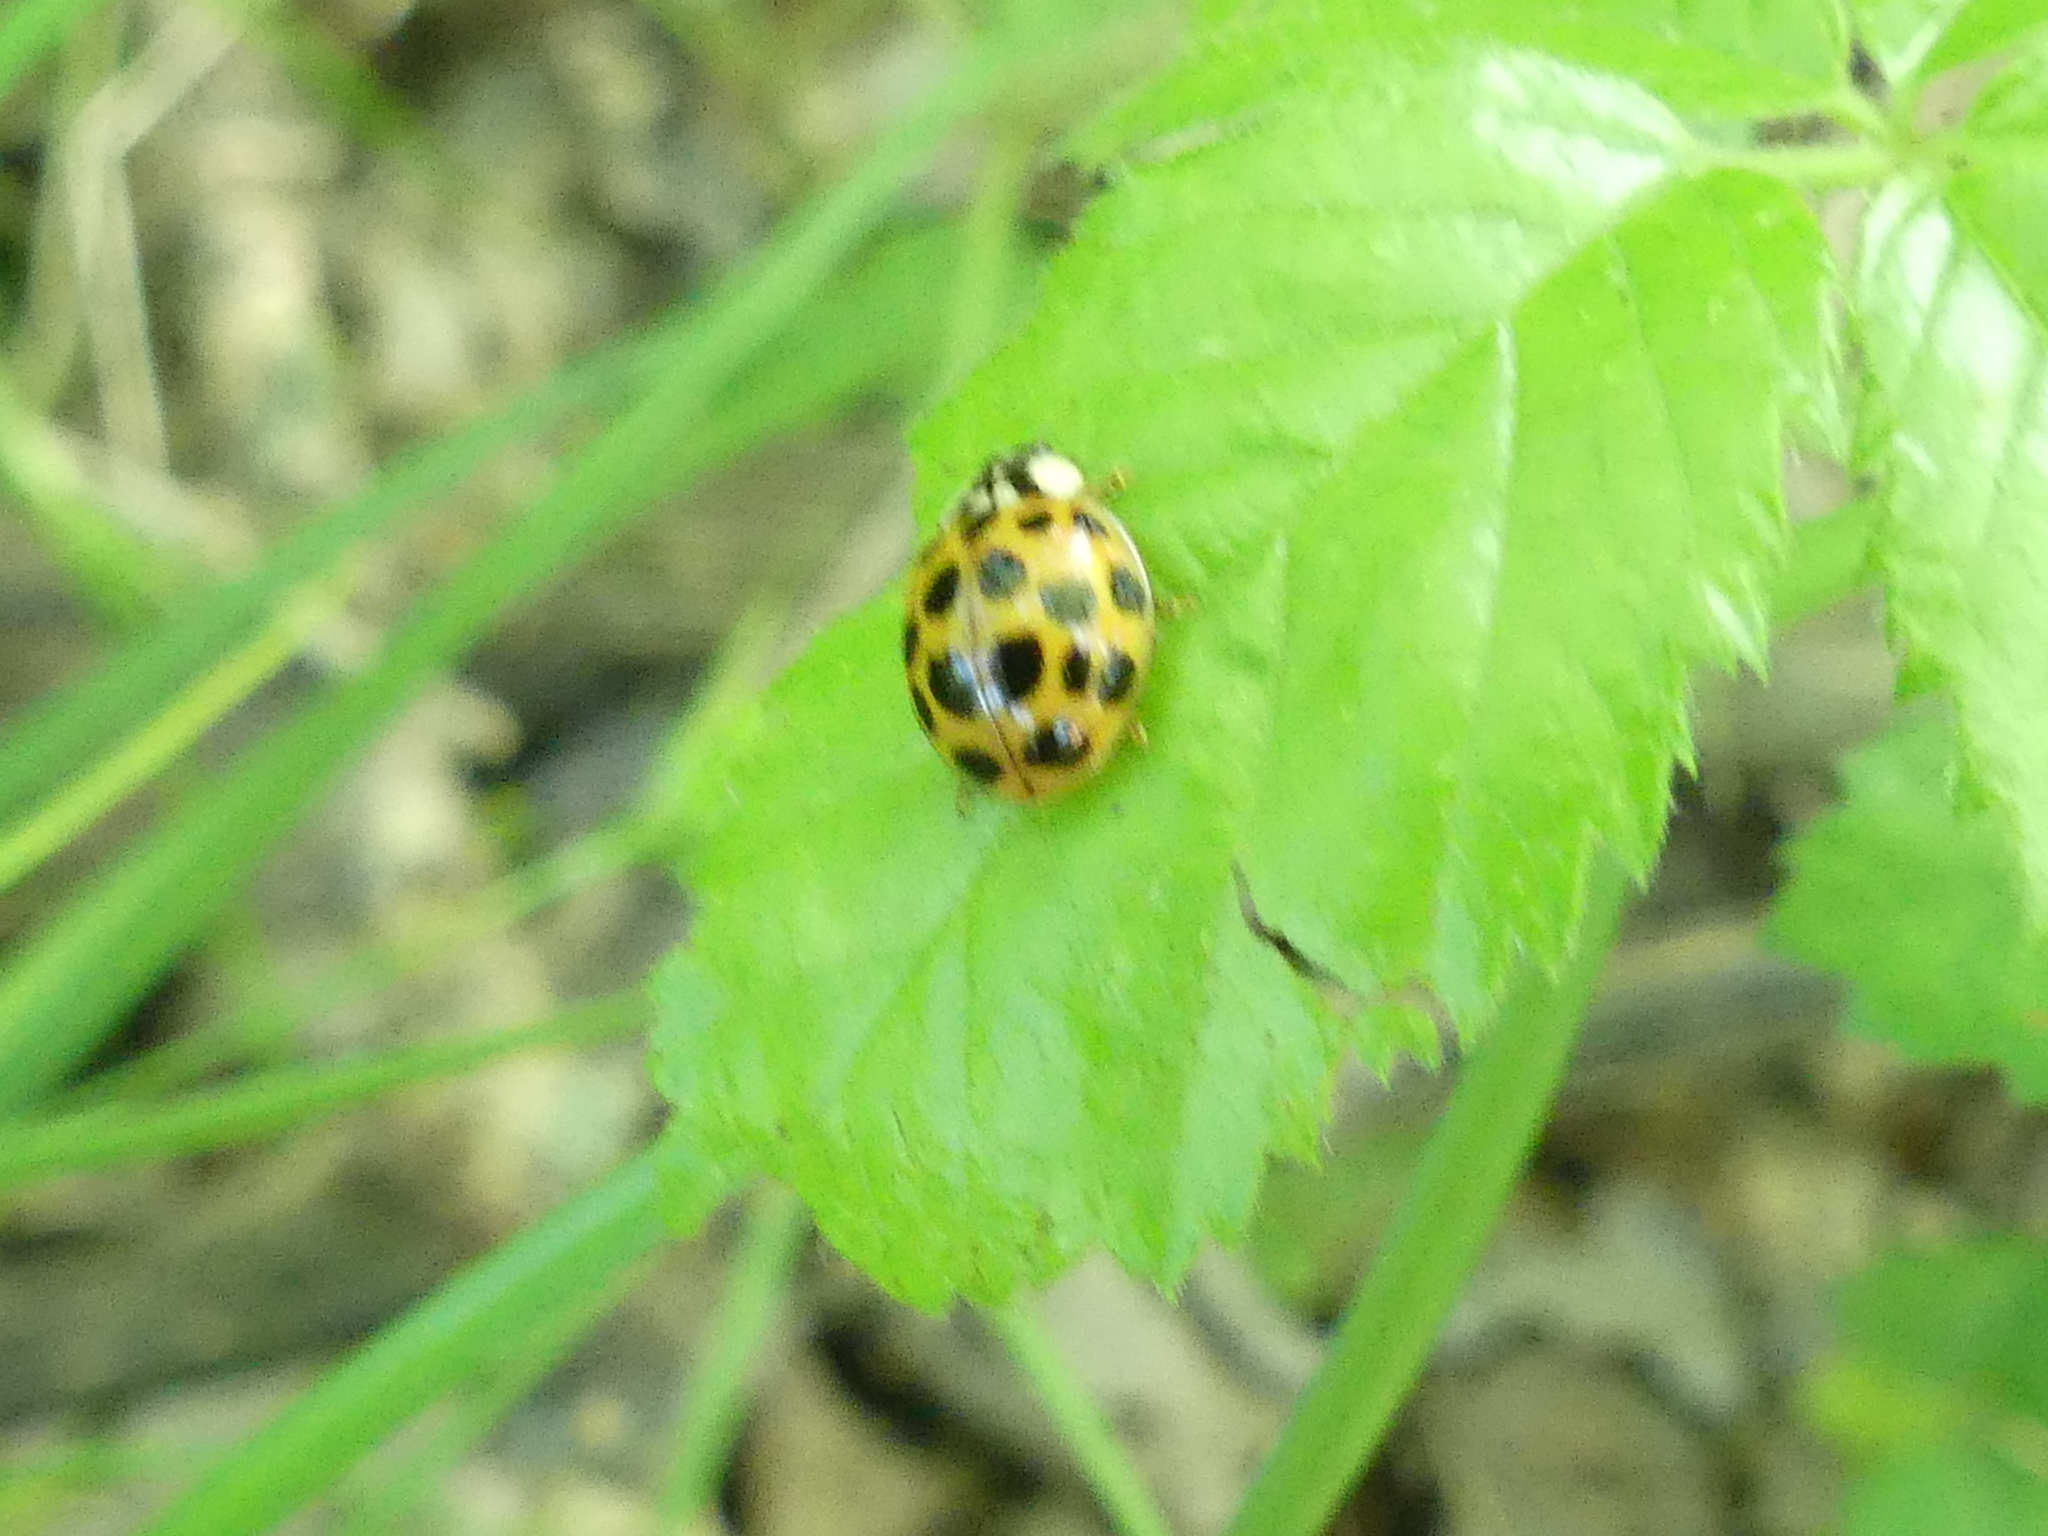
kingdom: Animalia
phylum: Arthropoda
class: Insecta
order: Coleoptera
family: Coccinellidae
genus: Harmonia
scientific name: Harmonia axyridis
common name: Harlequin ladybird
